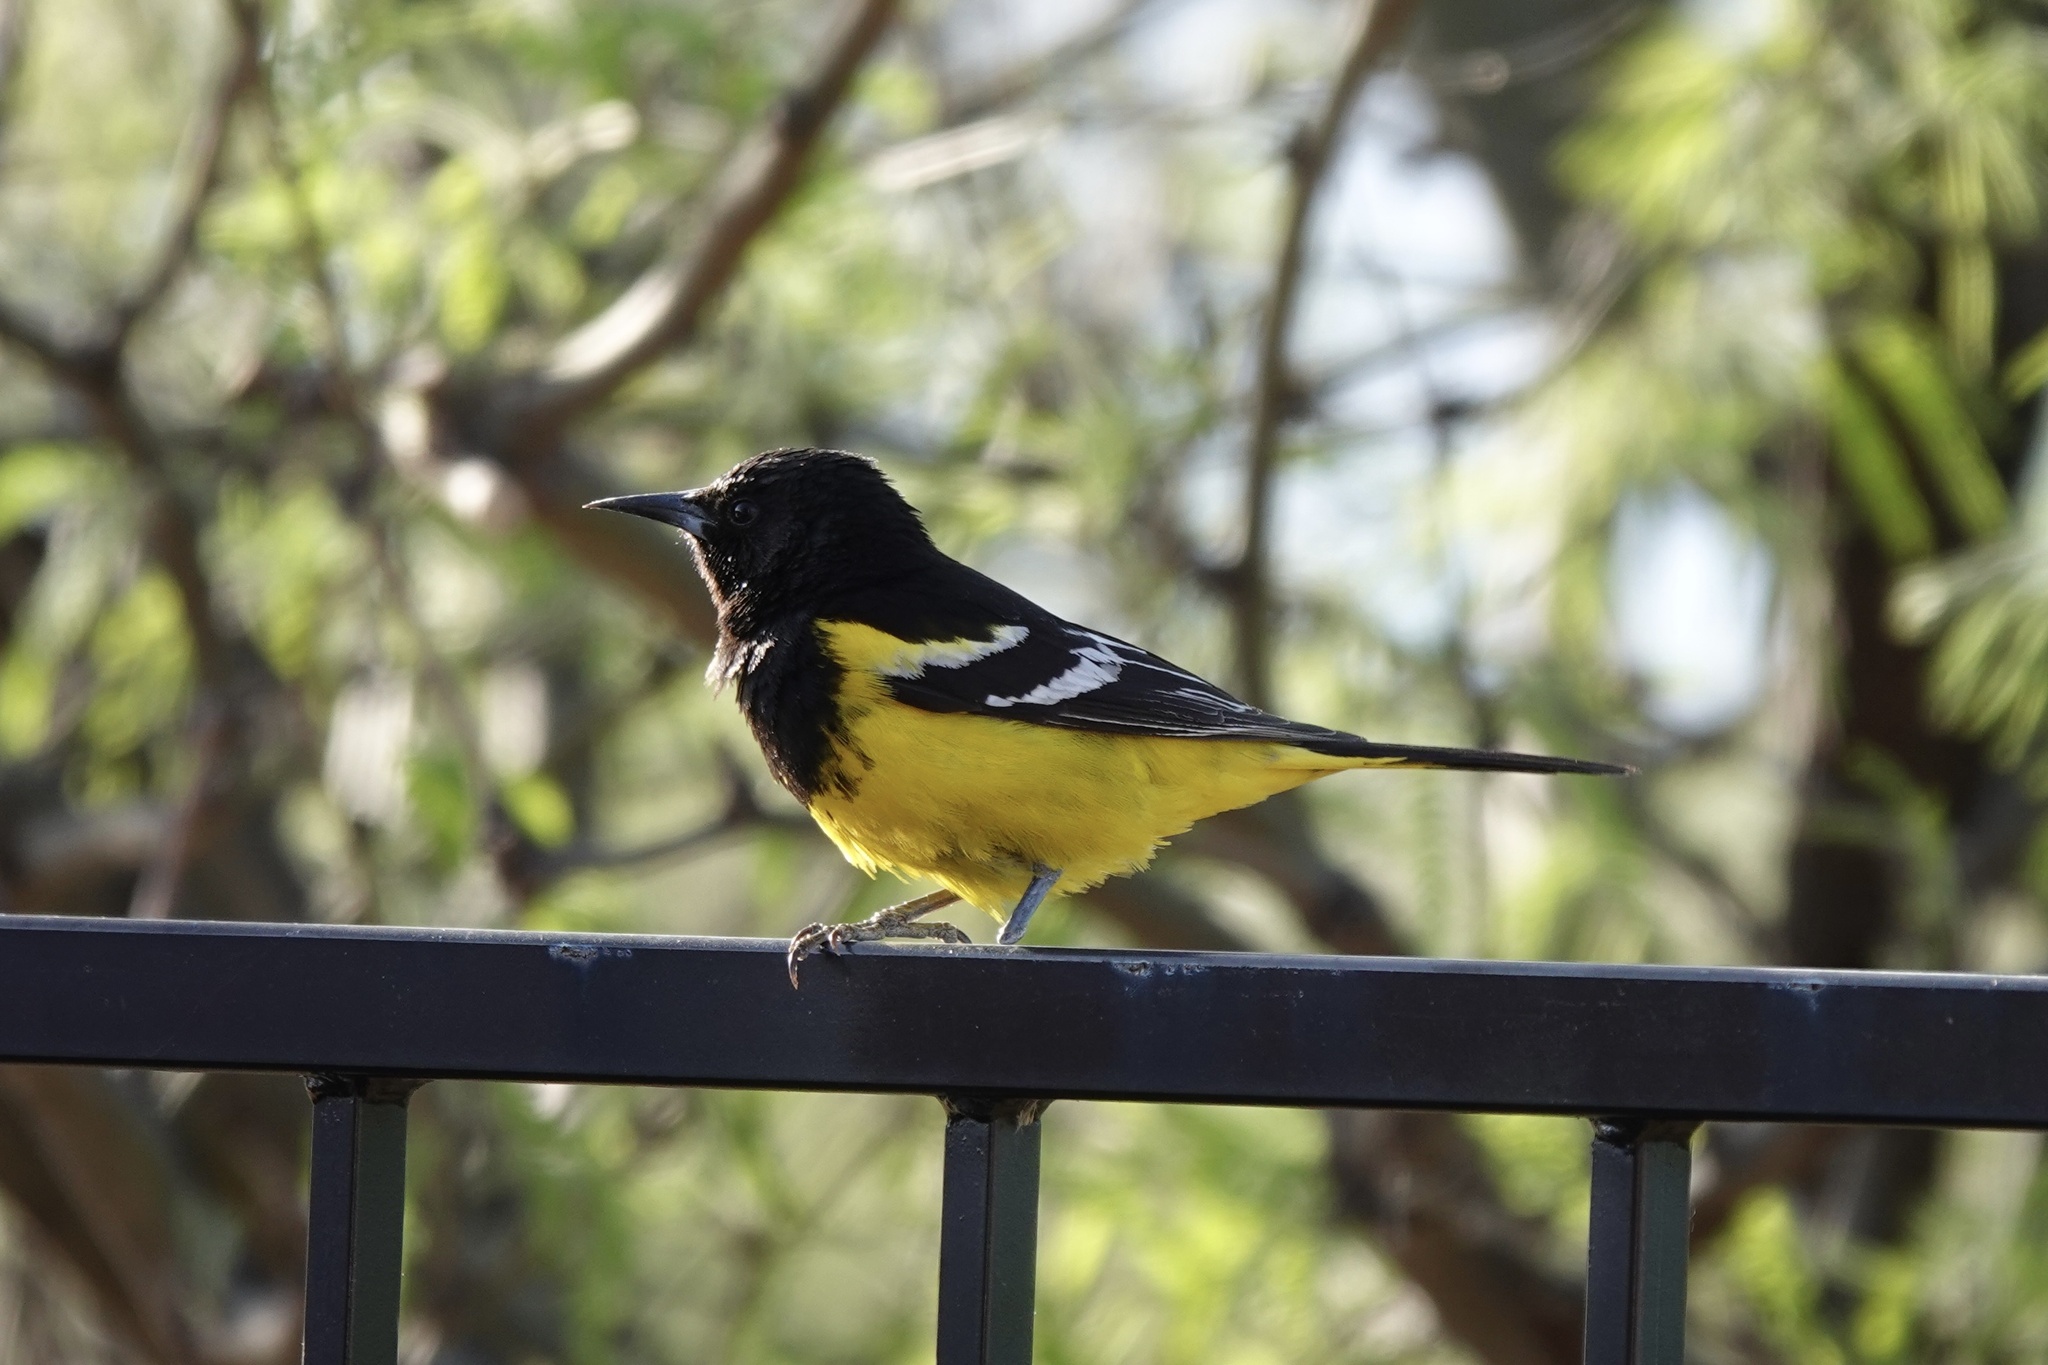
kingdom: Animalia
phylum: Chordata
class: Aves
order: Passeriformes
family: Icteridae
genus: Icterus
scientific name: Icterus parisorum
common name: Scott's oriole
